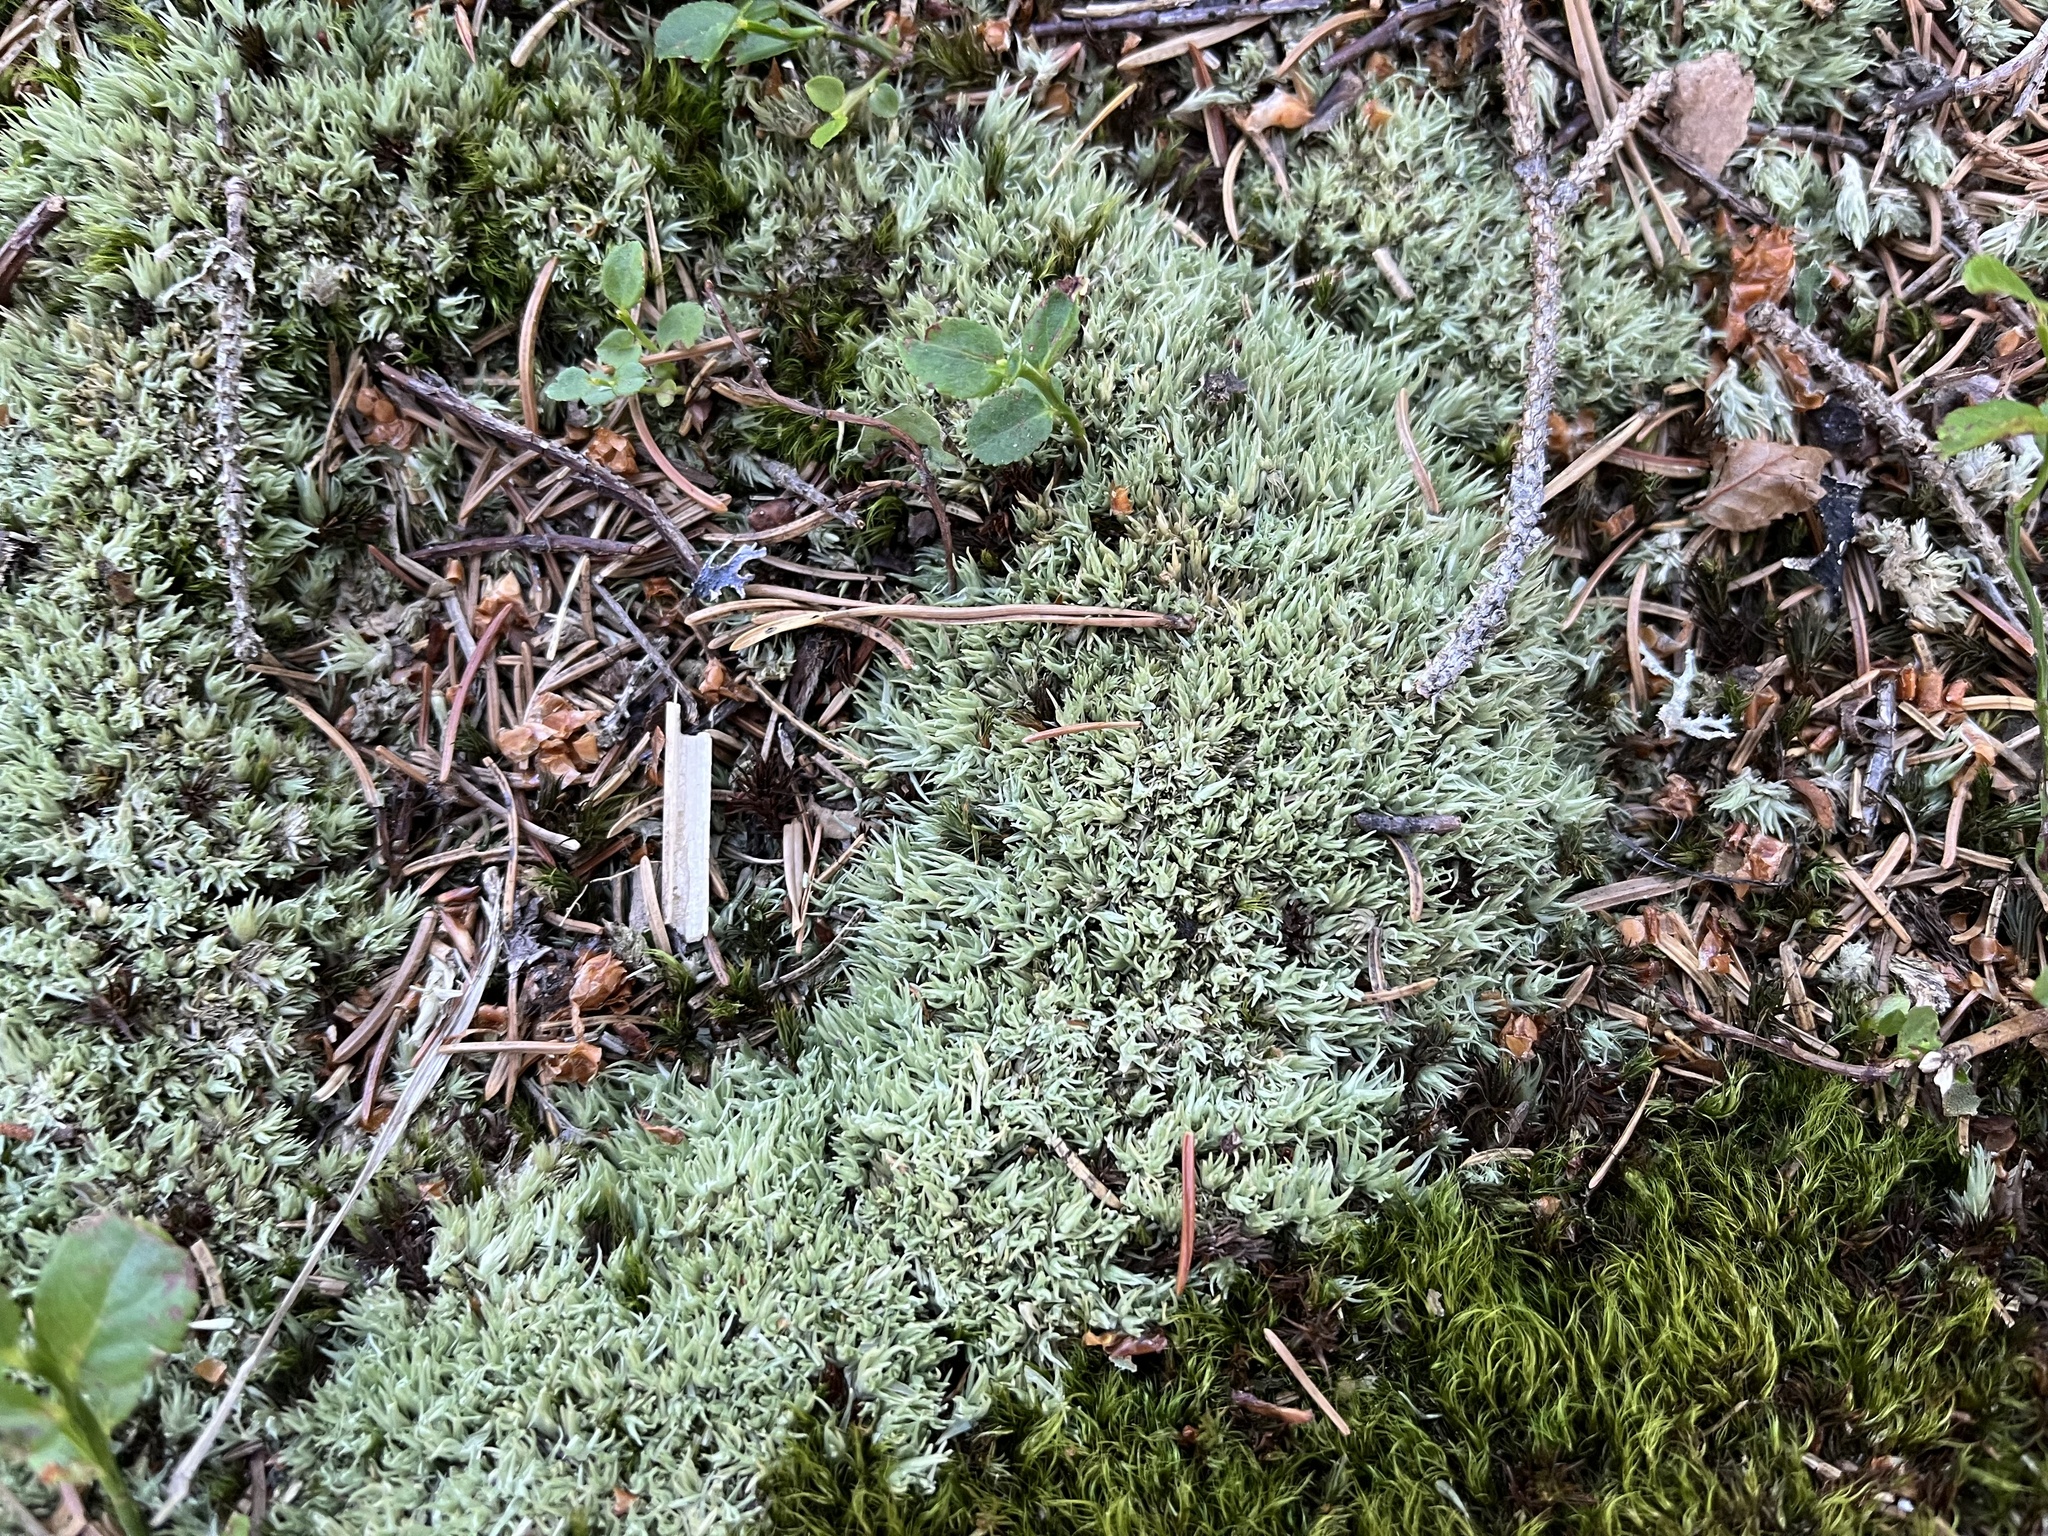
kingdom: Plantae
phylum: Bryophyta
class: Bryopsida
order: Dicranales
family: Leucobryaceae
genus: Leucobryum
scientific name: Leucobryum glaucum
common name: Large white-moss
